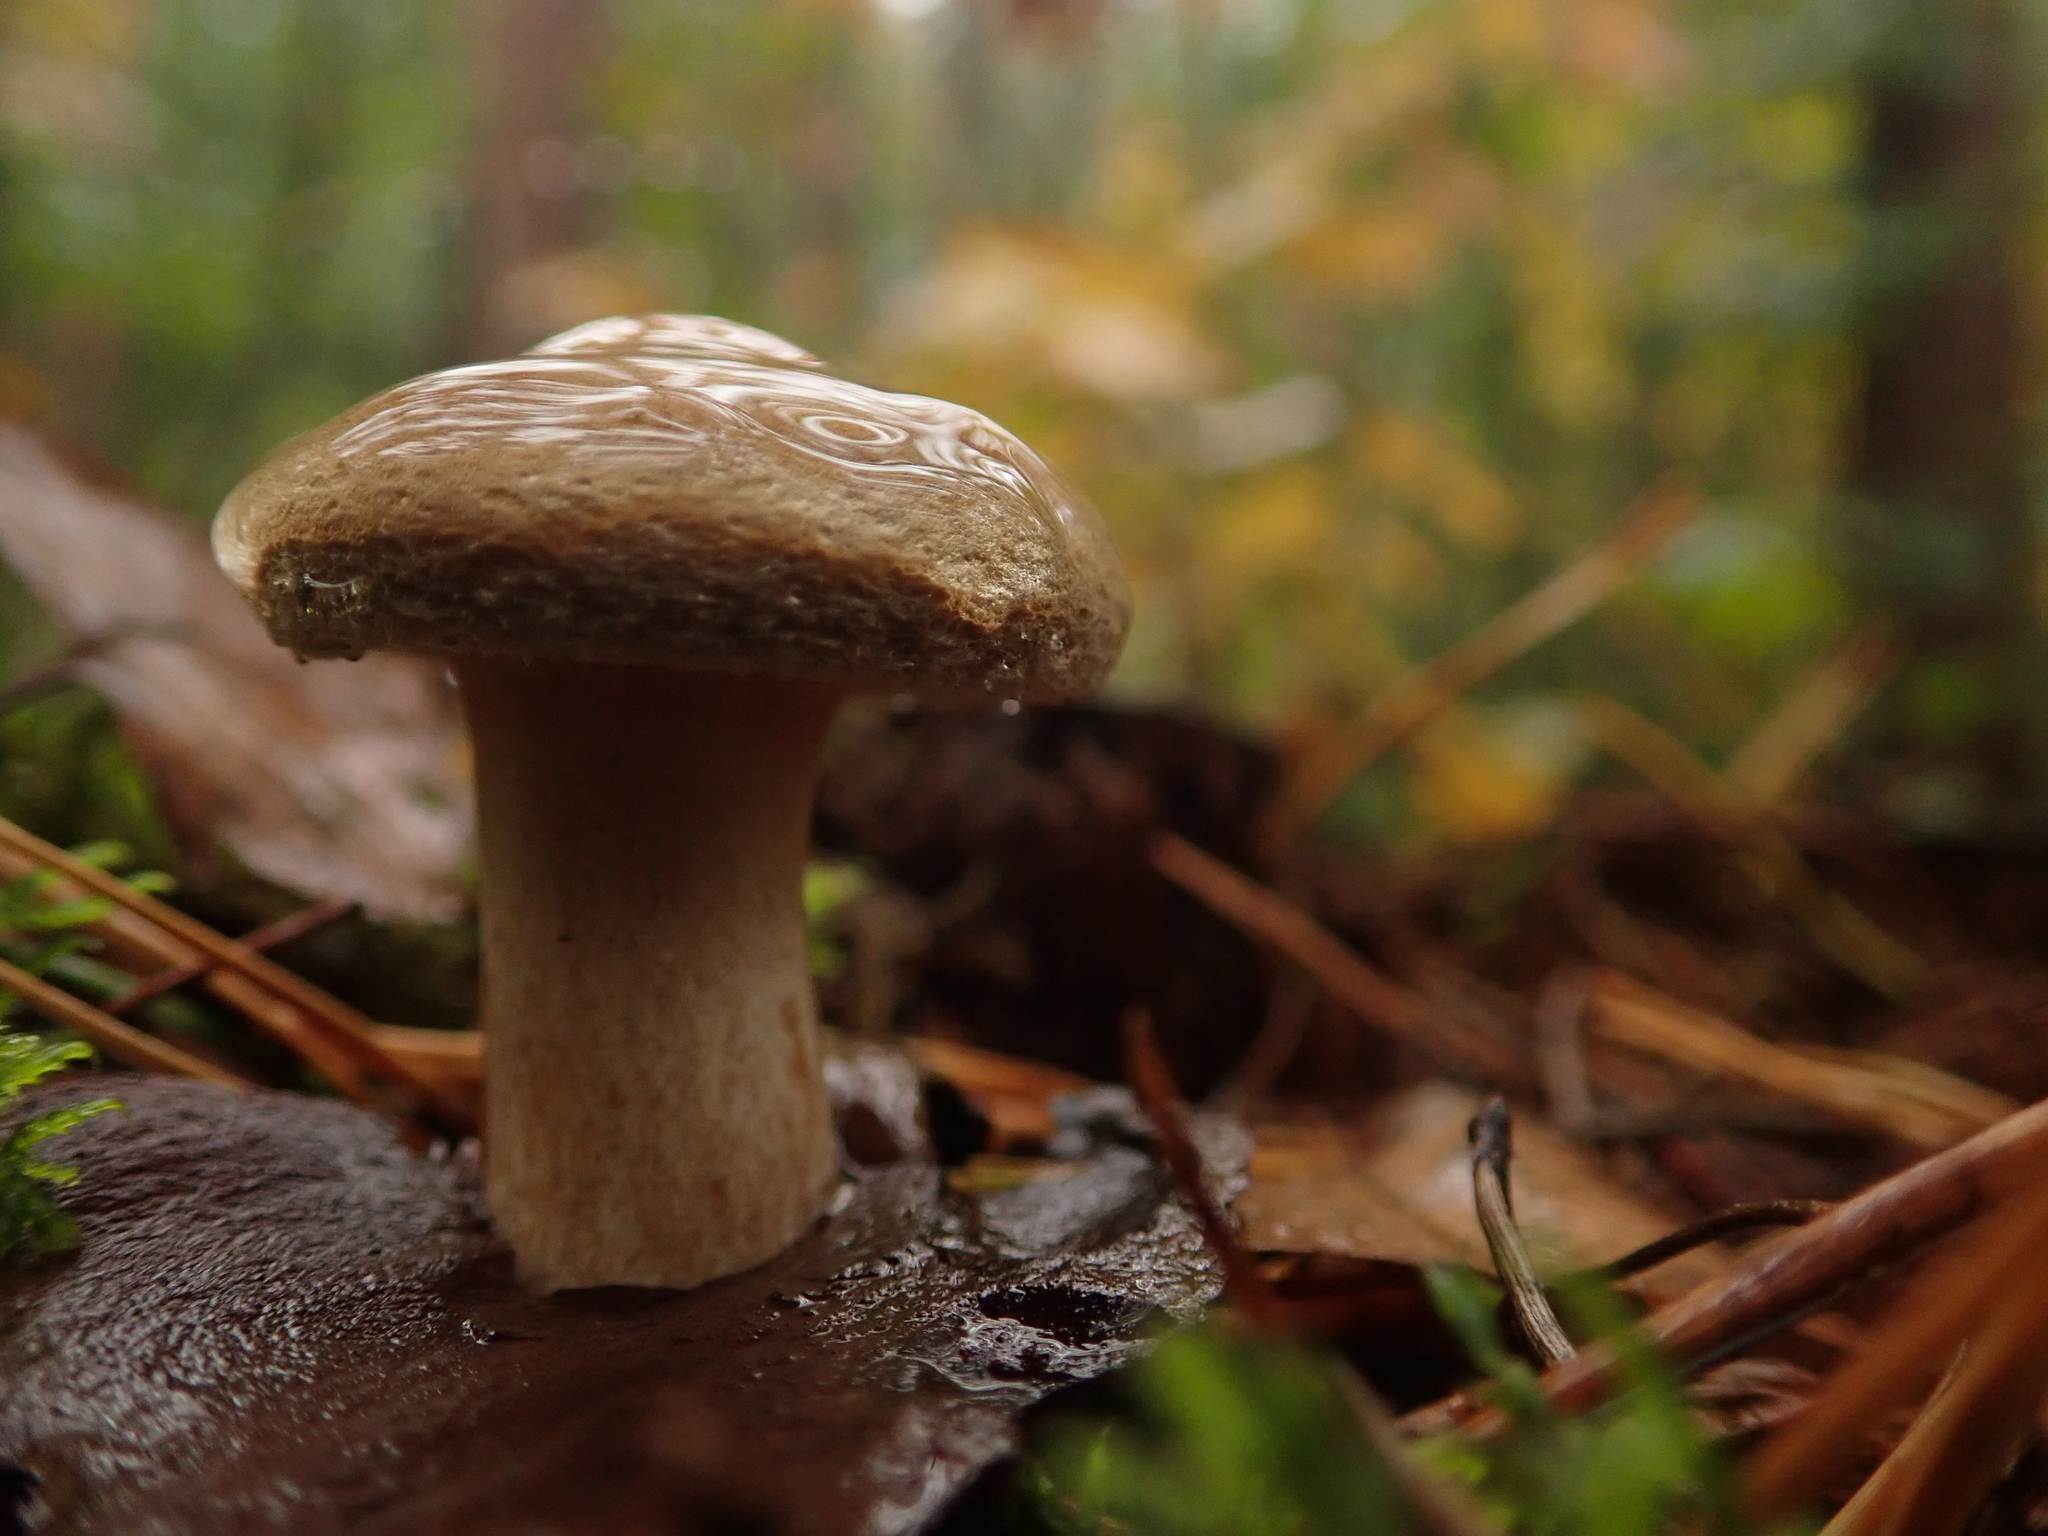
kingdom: Fungi
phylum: Basidiomycota
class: Agaricomycetes
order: Boletales
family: Paxillaceae
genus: Paxillus
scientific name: Paxillus involutus
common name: Brown roll rim
